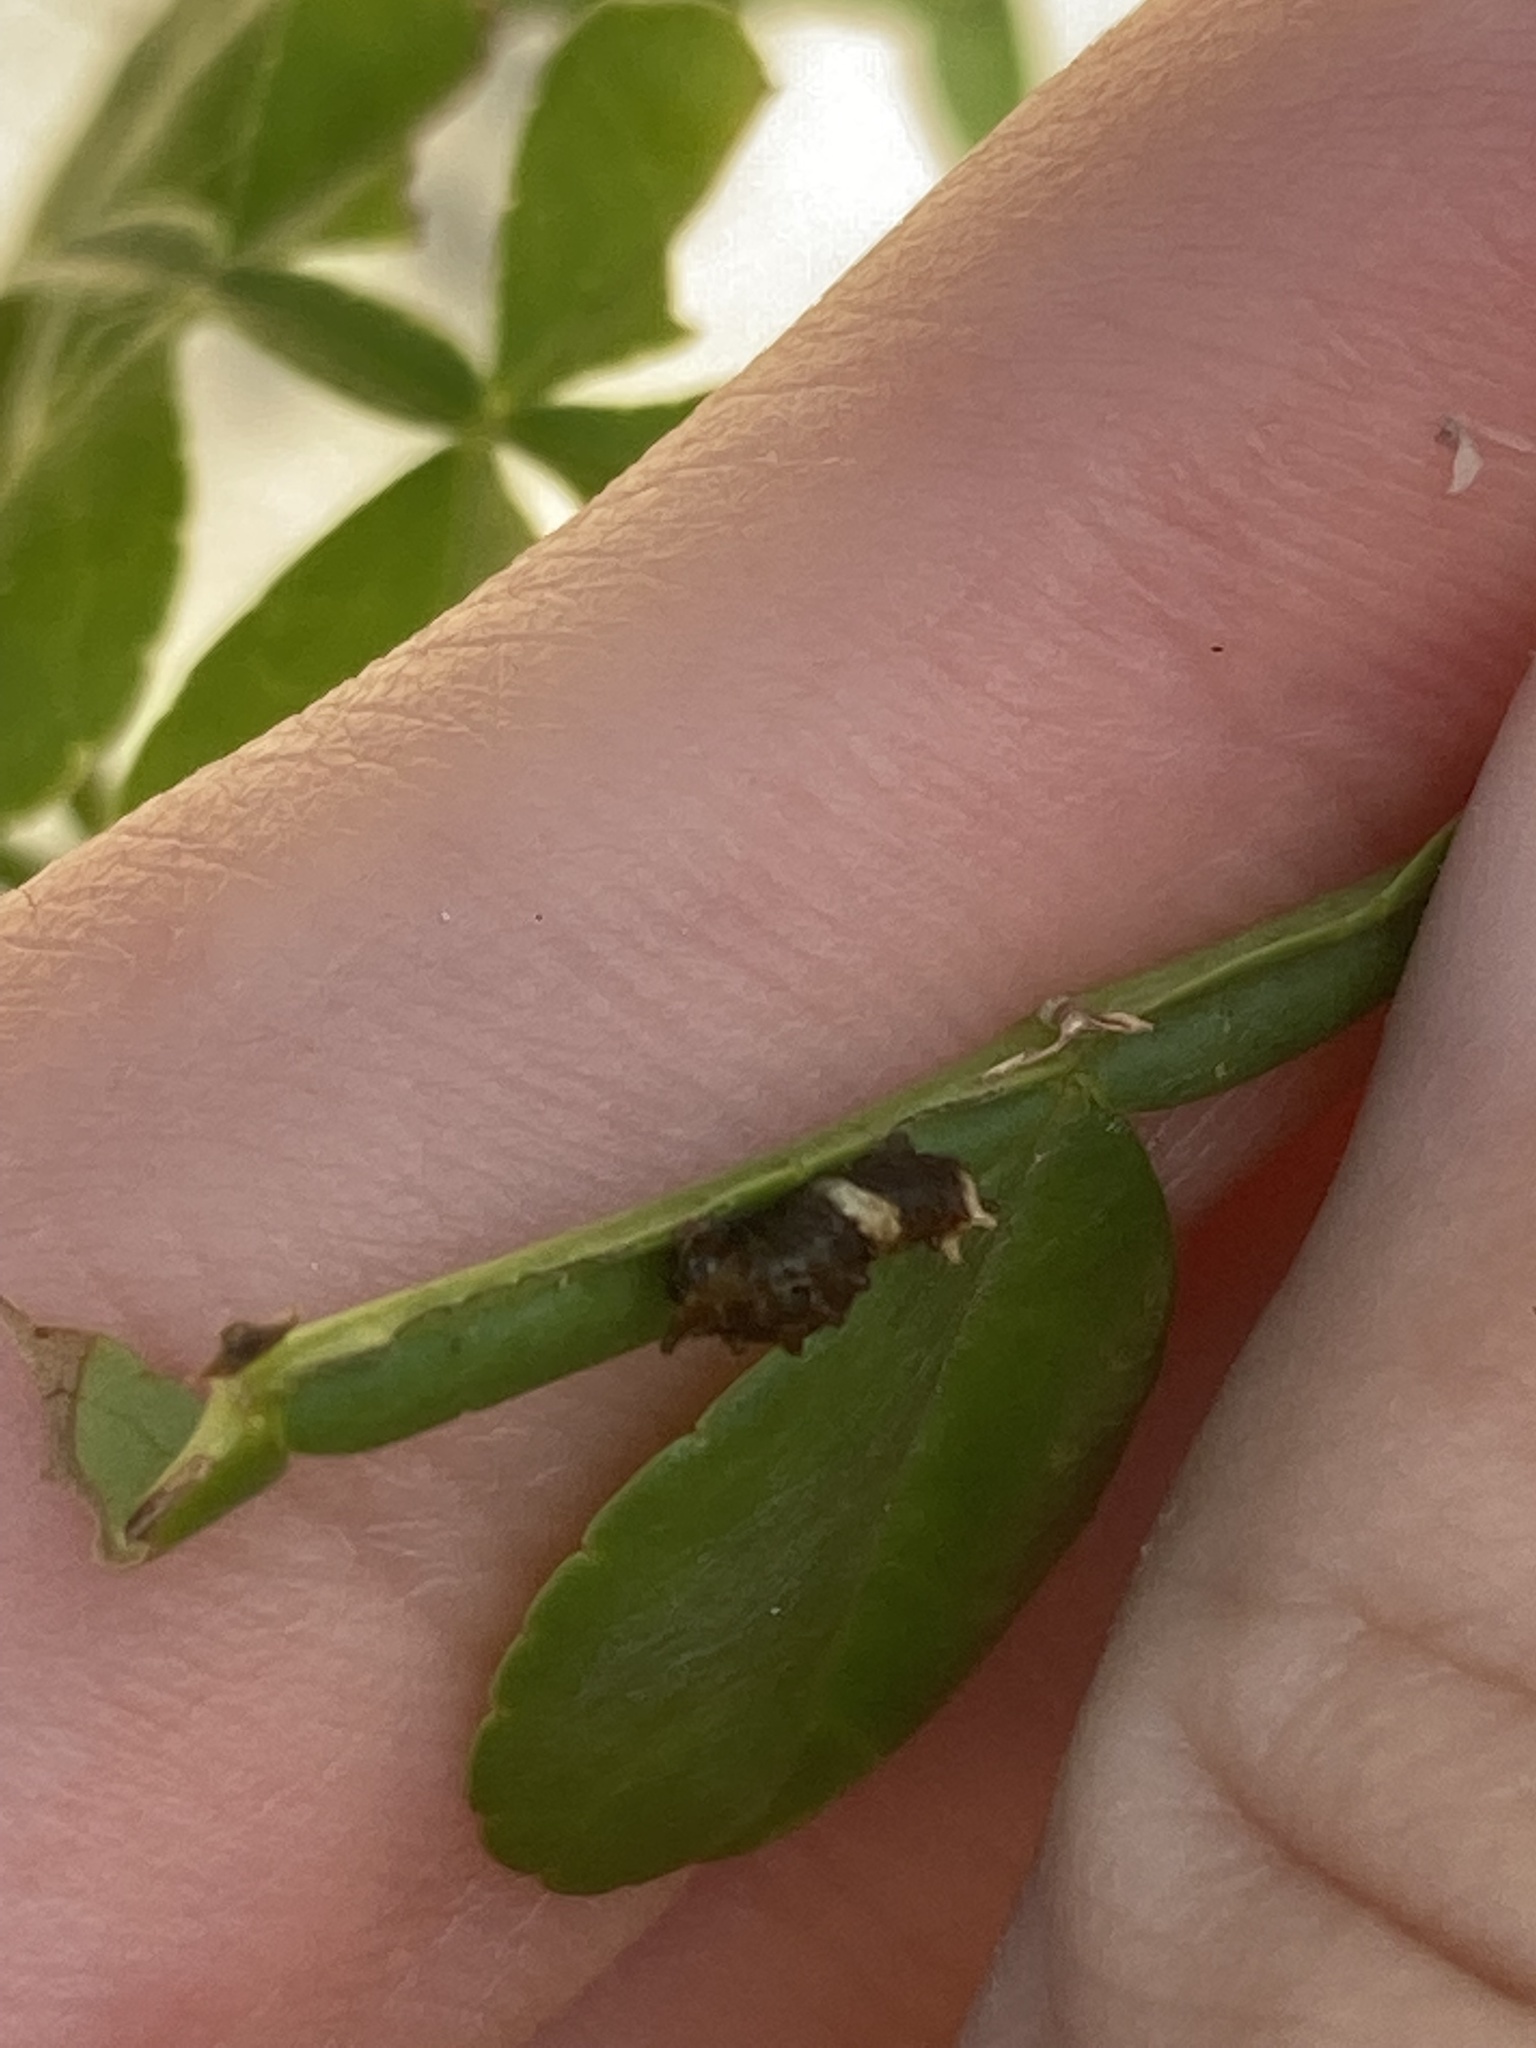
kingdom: Animalia
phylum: Arthropoda
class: Insecta
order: Lepidoptera
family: Papilionidae
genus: Papilio
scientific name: Papilio cresphontes
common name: Giant swallowtail
